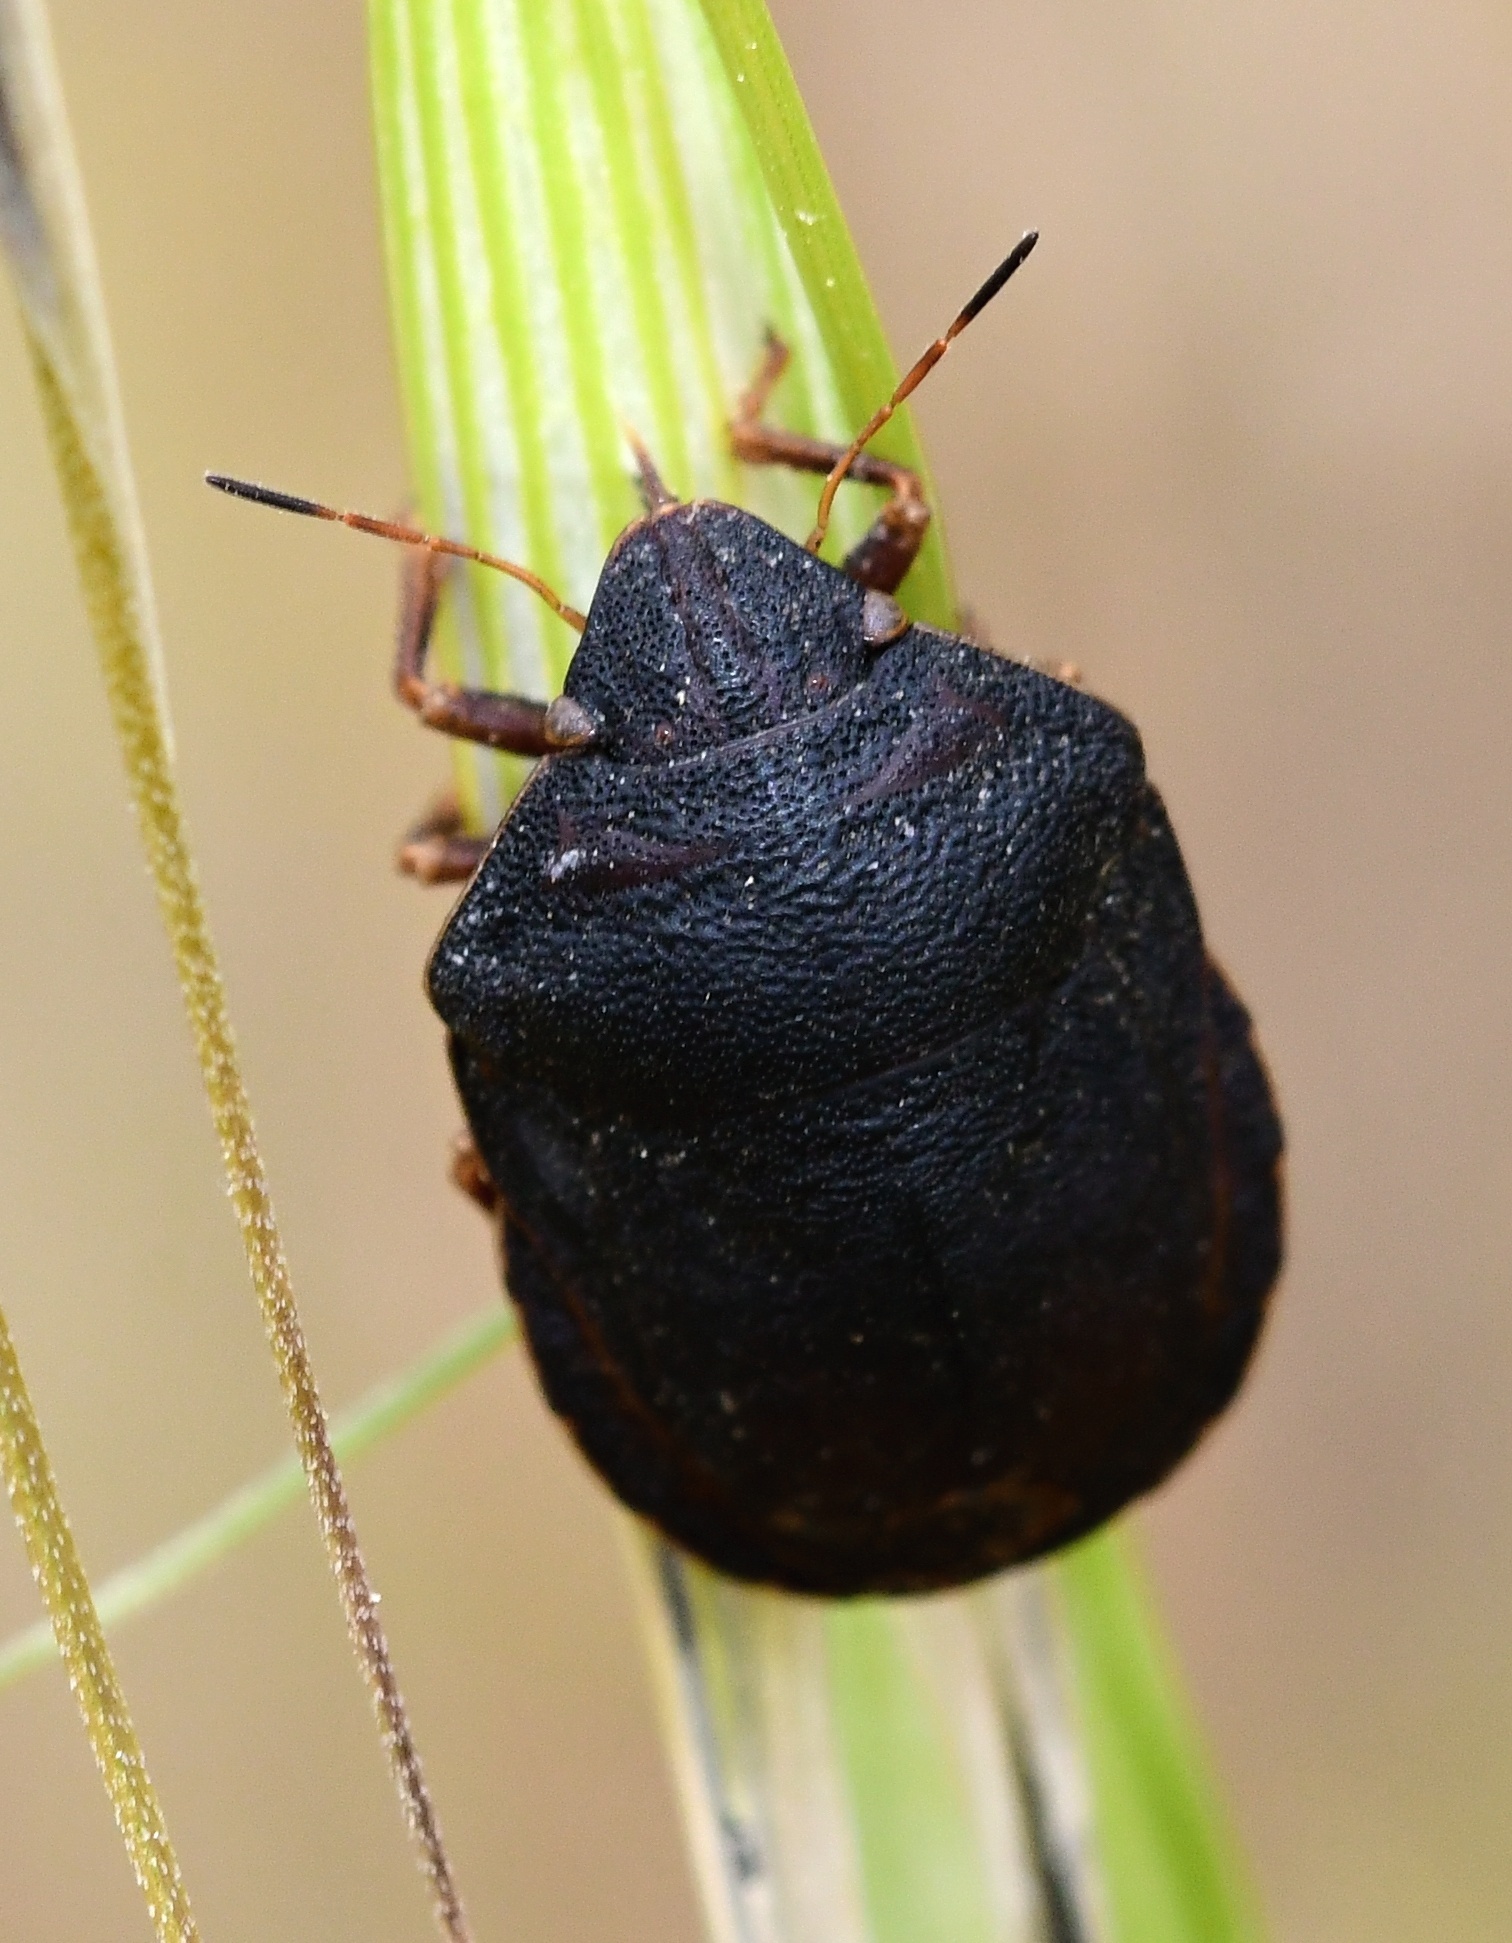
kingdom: Animalia
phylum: Arthropoda
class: Insecta
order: Hemiptera
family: Scutelleridae
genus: Eurygaster
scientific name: Eurygaster maura
